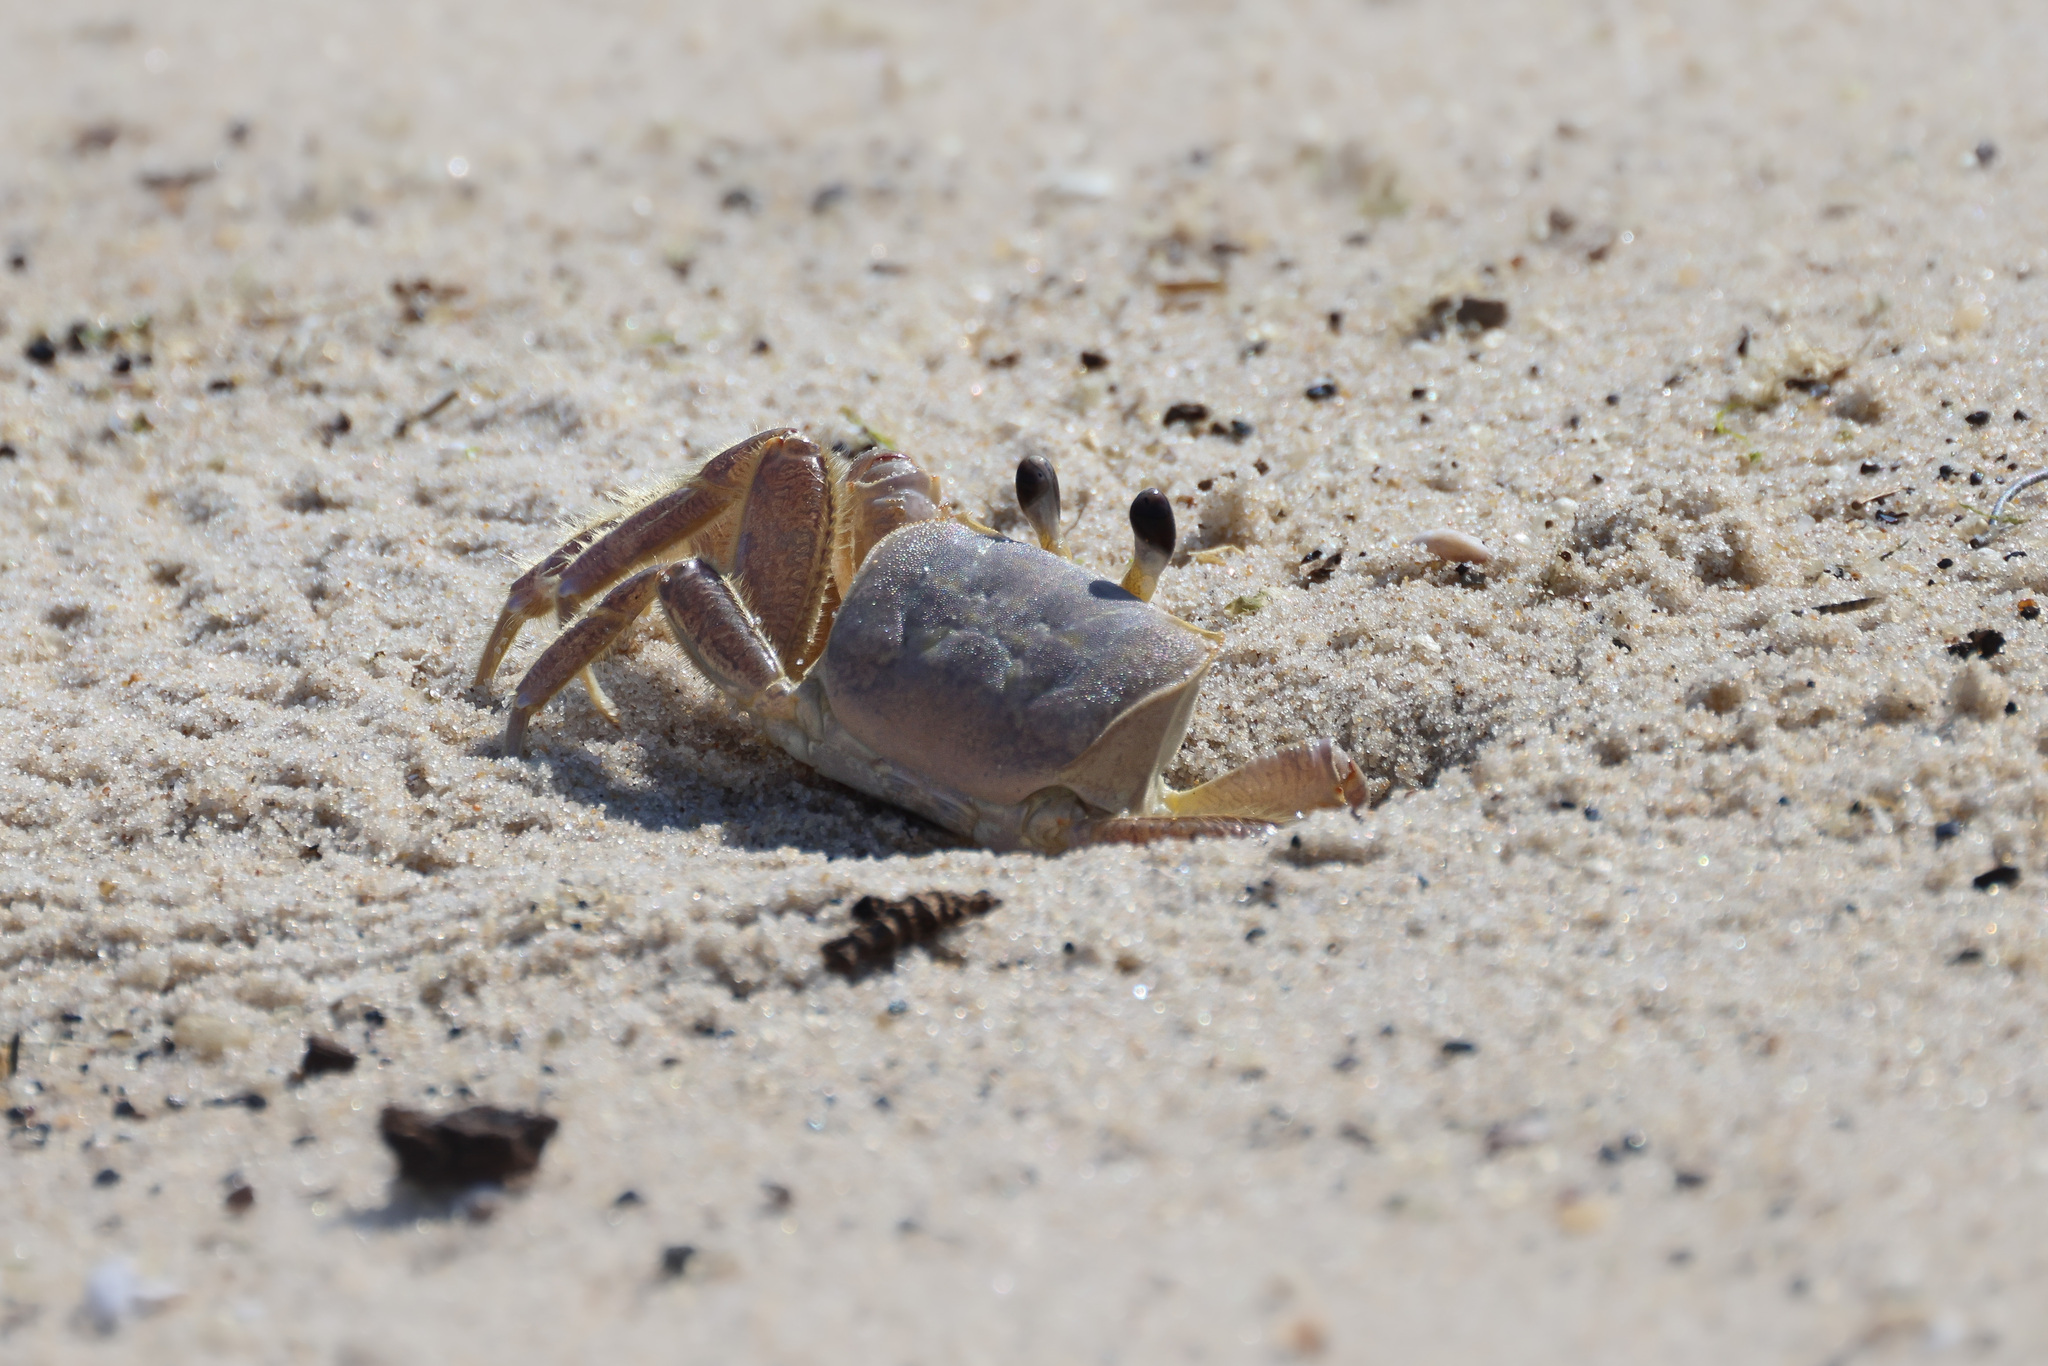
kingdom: Animalia
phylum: Arthropoda
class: Malacostraca
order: Decapoda
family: Ocypodidae
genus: Ocypode
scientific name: Ocypode quadrata
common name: Ghost crab
